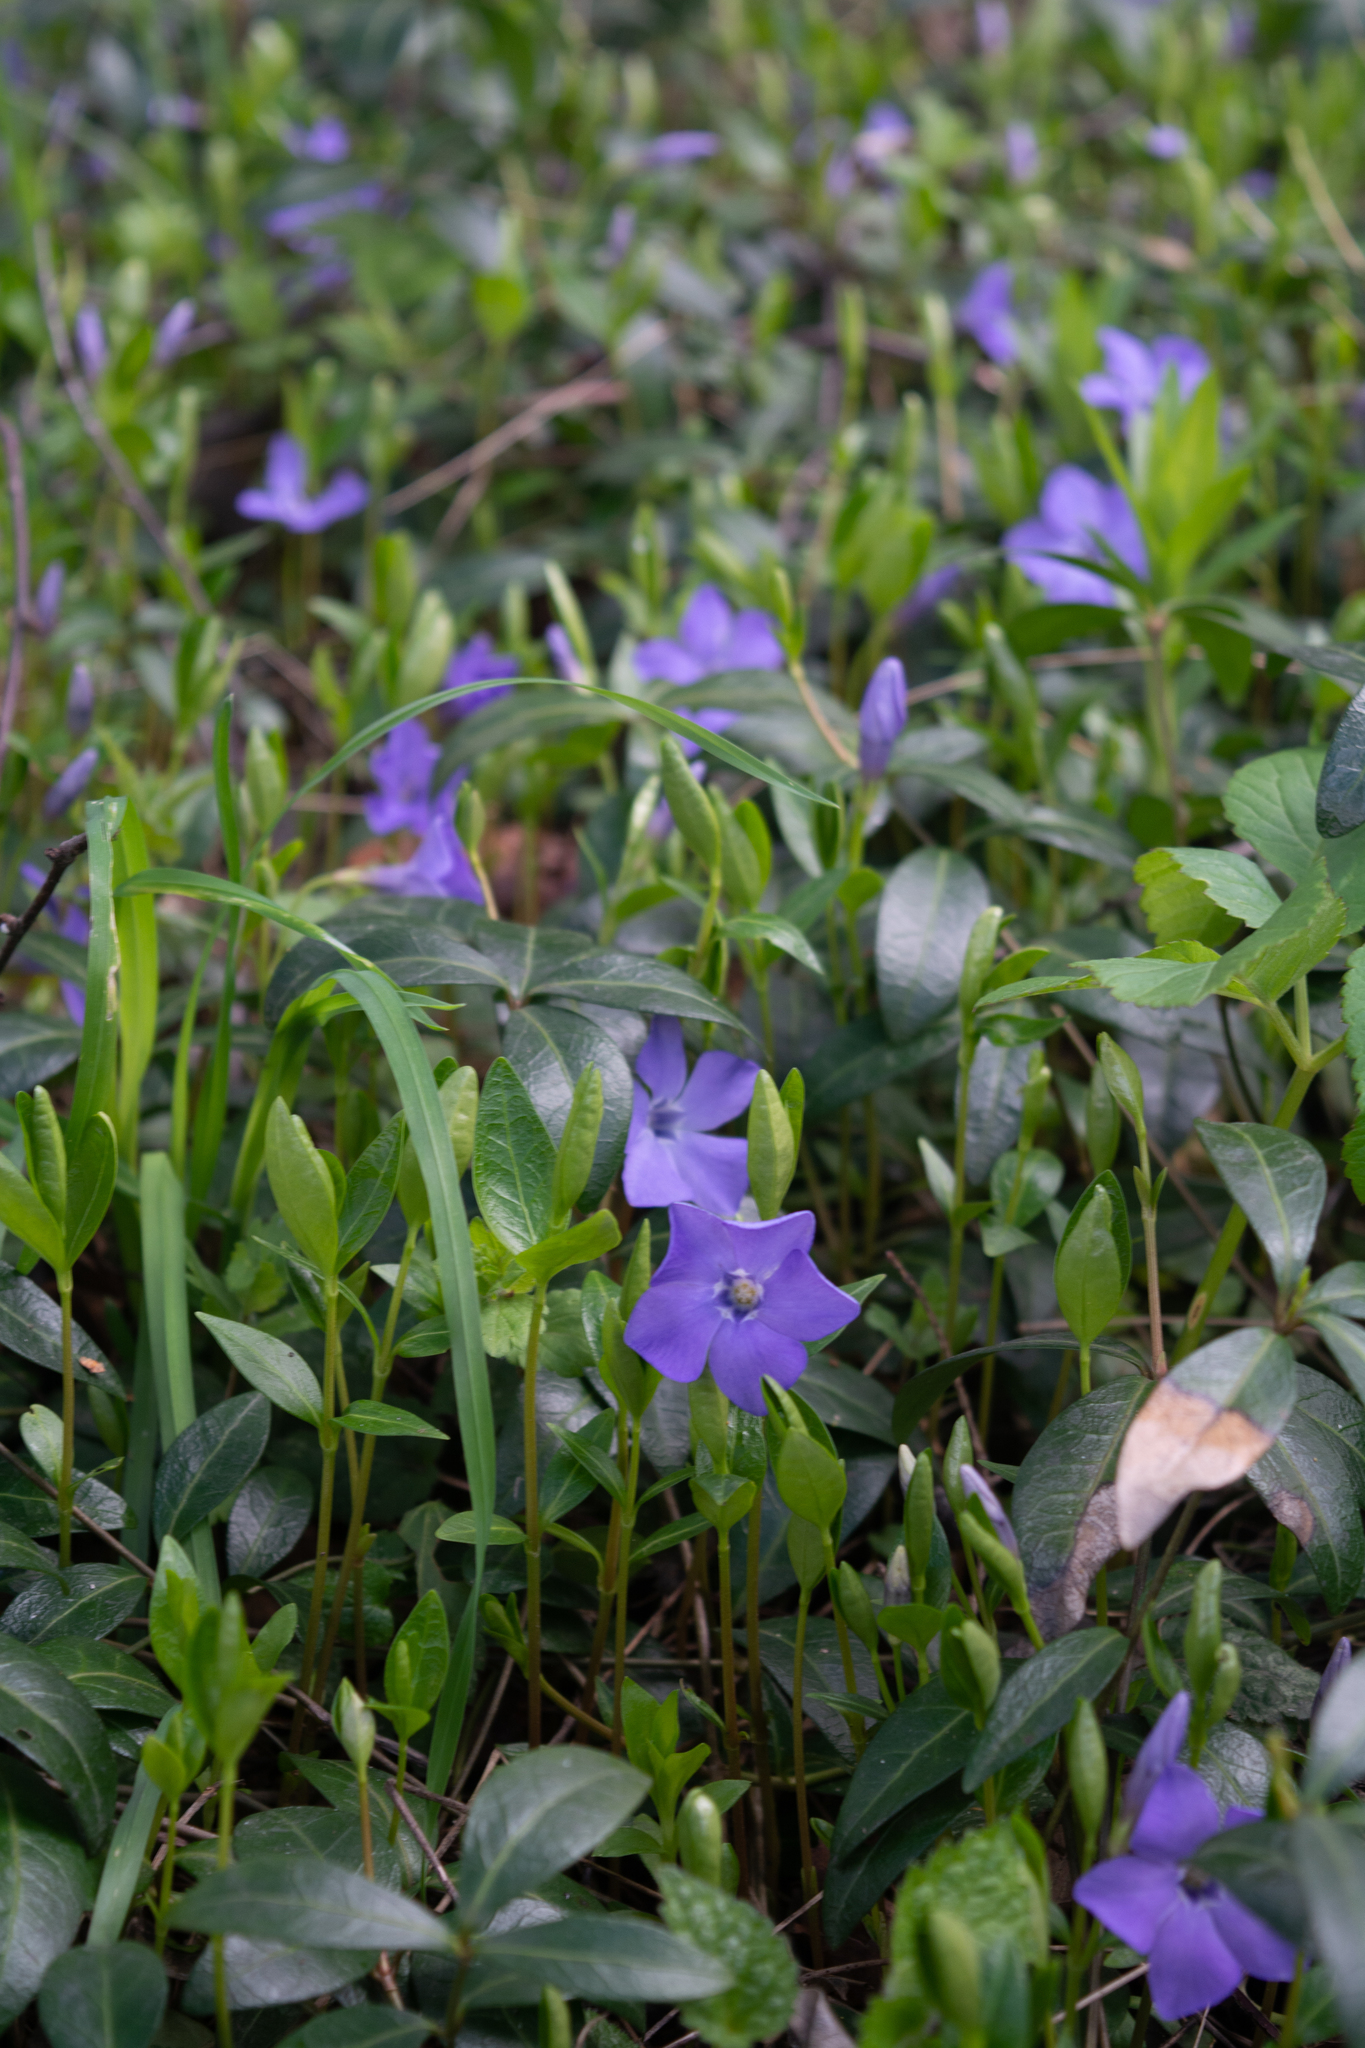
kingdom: Plantae
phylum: Tracheophyta
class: Magnoliopsida
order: Gentianales
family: Apocynaceae
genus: Vinca
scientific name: Vinca minor
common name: Lesser periwinkle
